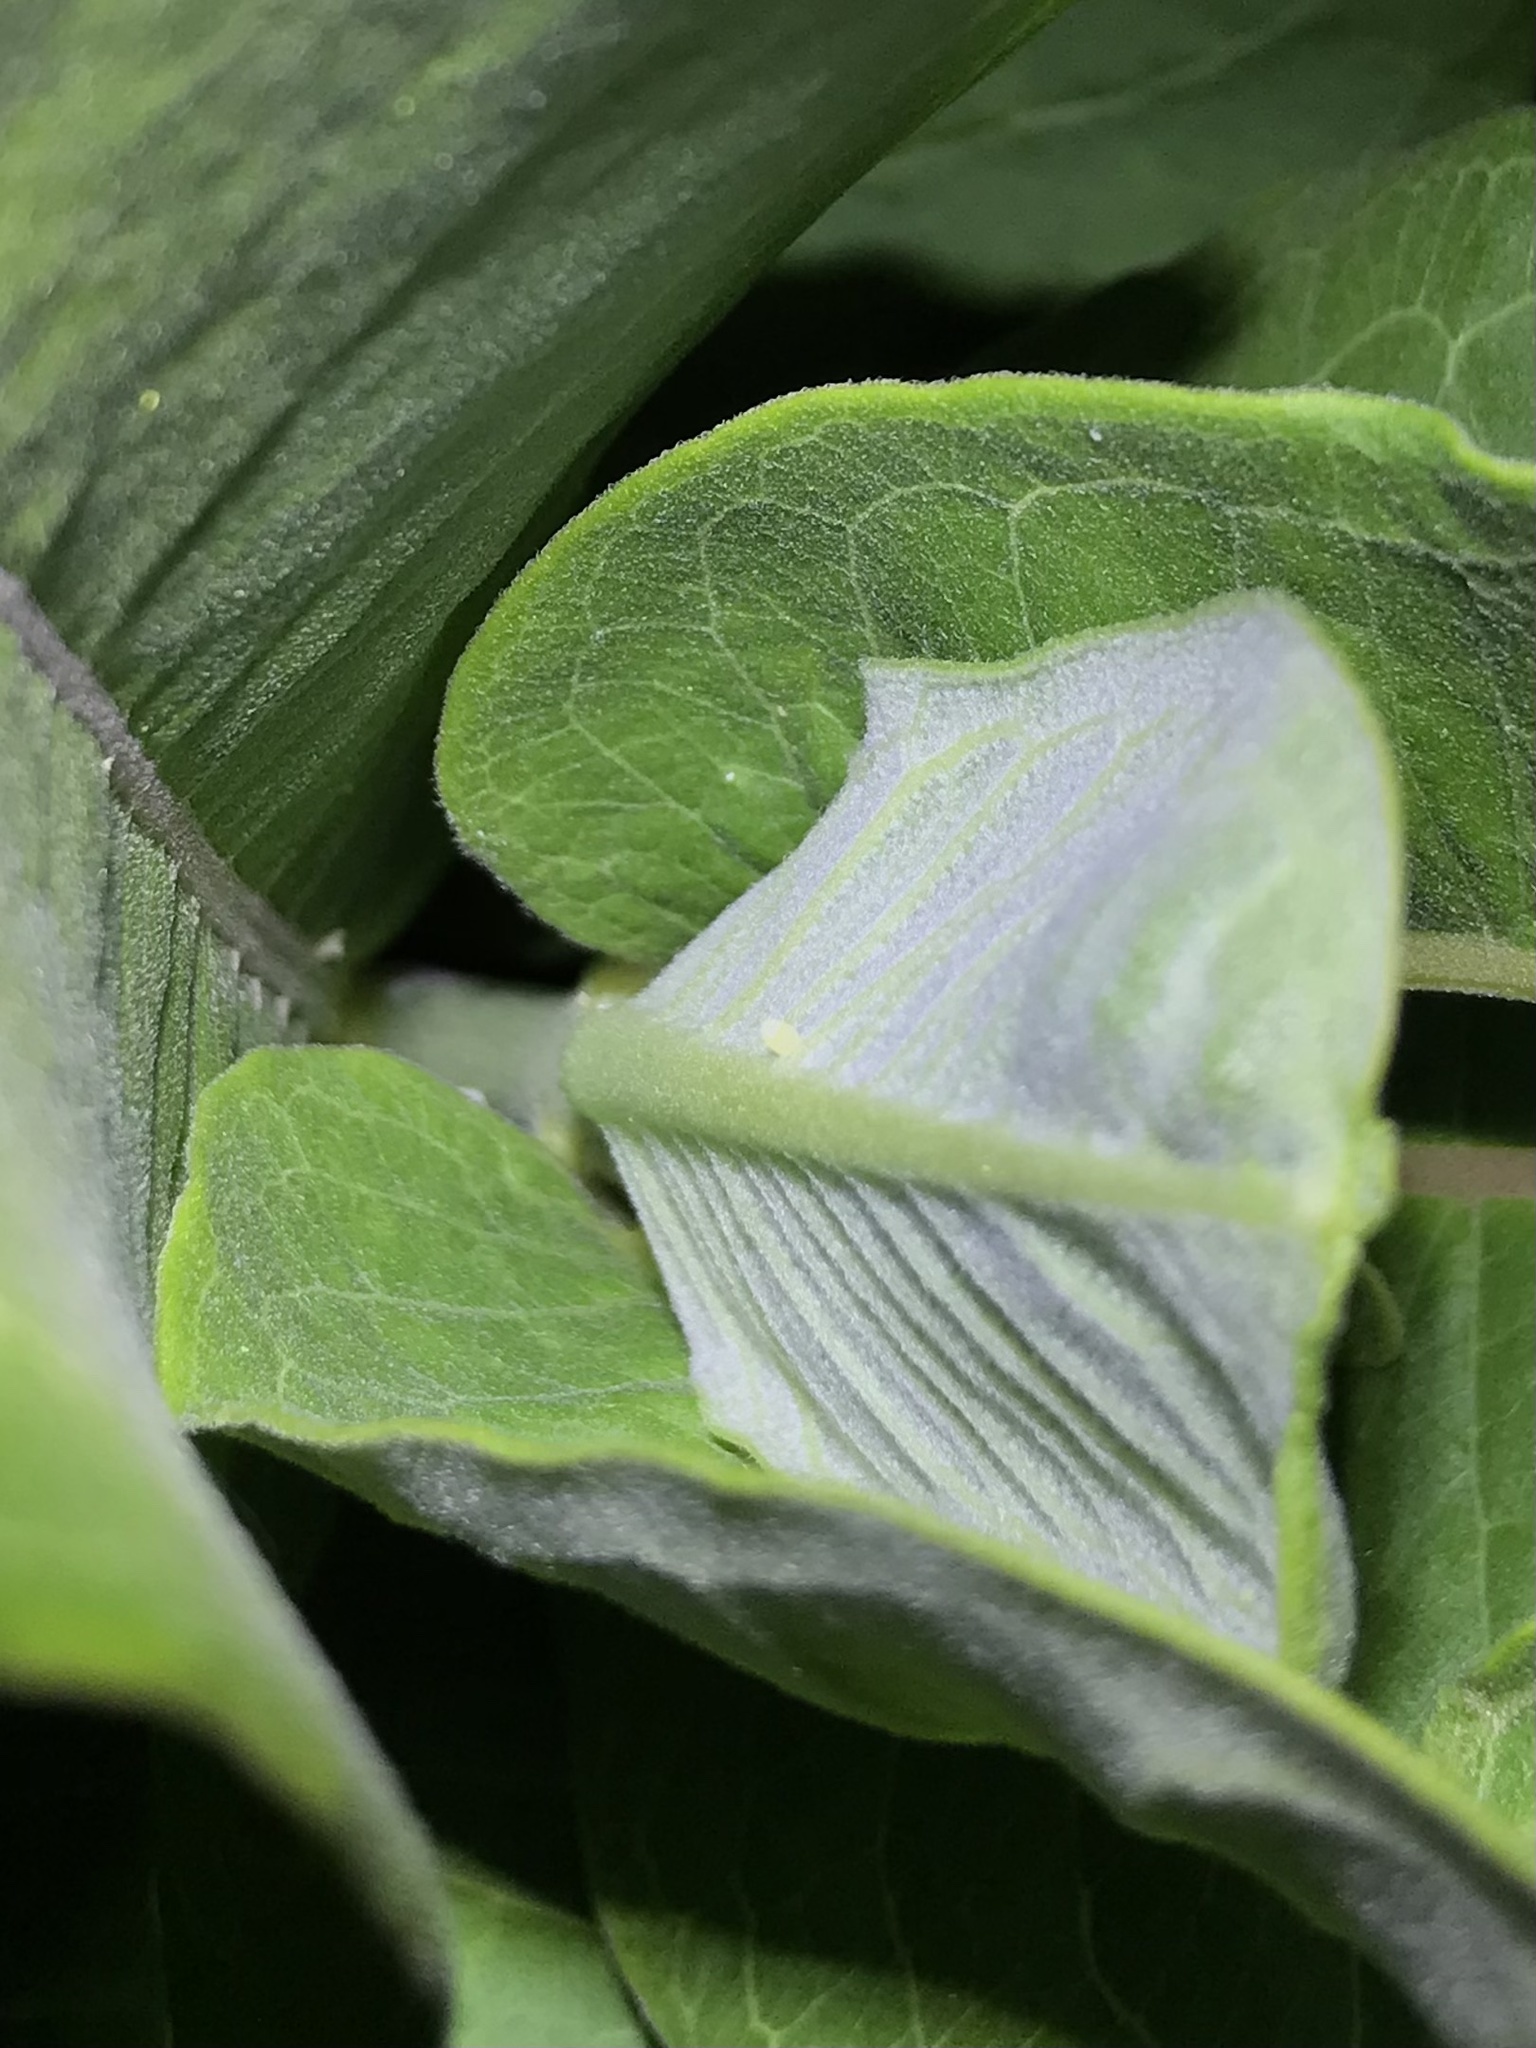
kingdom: Animalia
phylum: Arthropoda
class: Insecta
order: Lepidoptera
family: Nymphalidae
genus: Danaus
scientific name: Danaus plexippus
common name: Monarch
